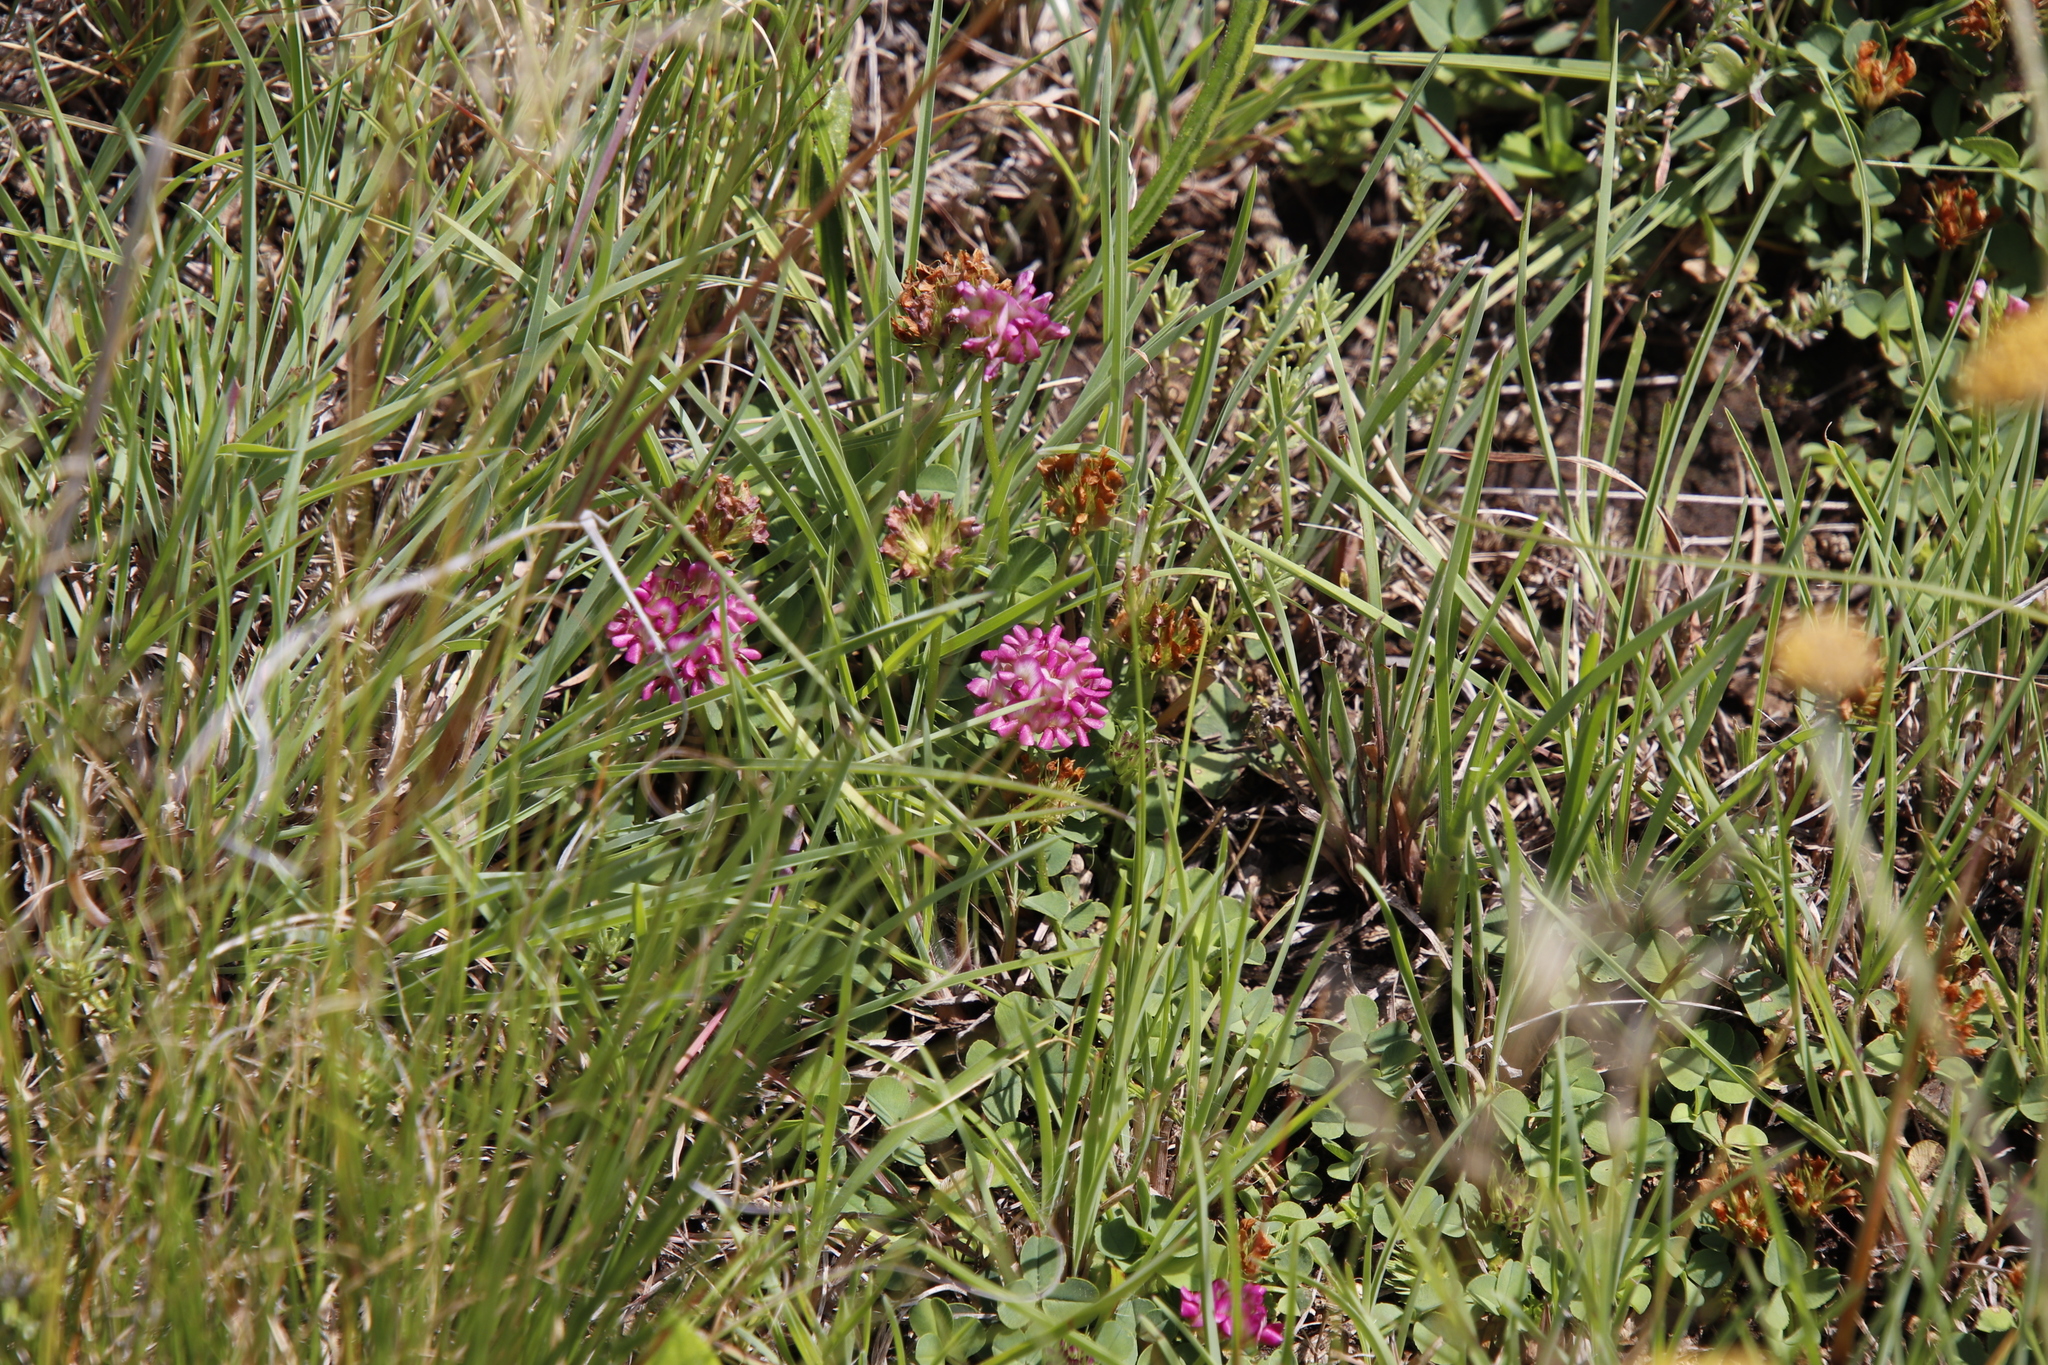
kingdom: Plantae
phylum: Tracheophyta
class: Magnoliopsida
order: Fabales
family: Fabaceae
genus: Trifolium
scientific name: Trifolium burchellianum
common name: Burchell's clover
